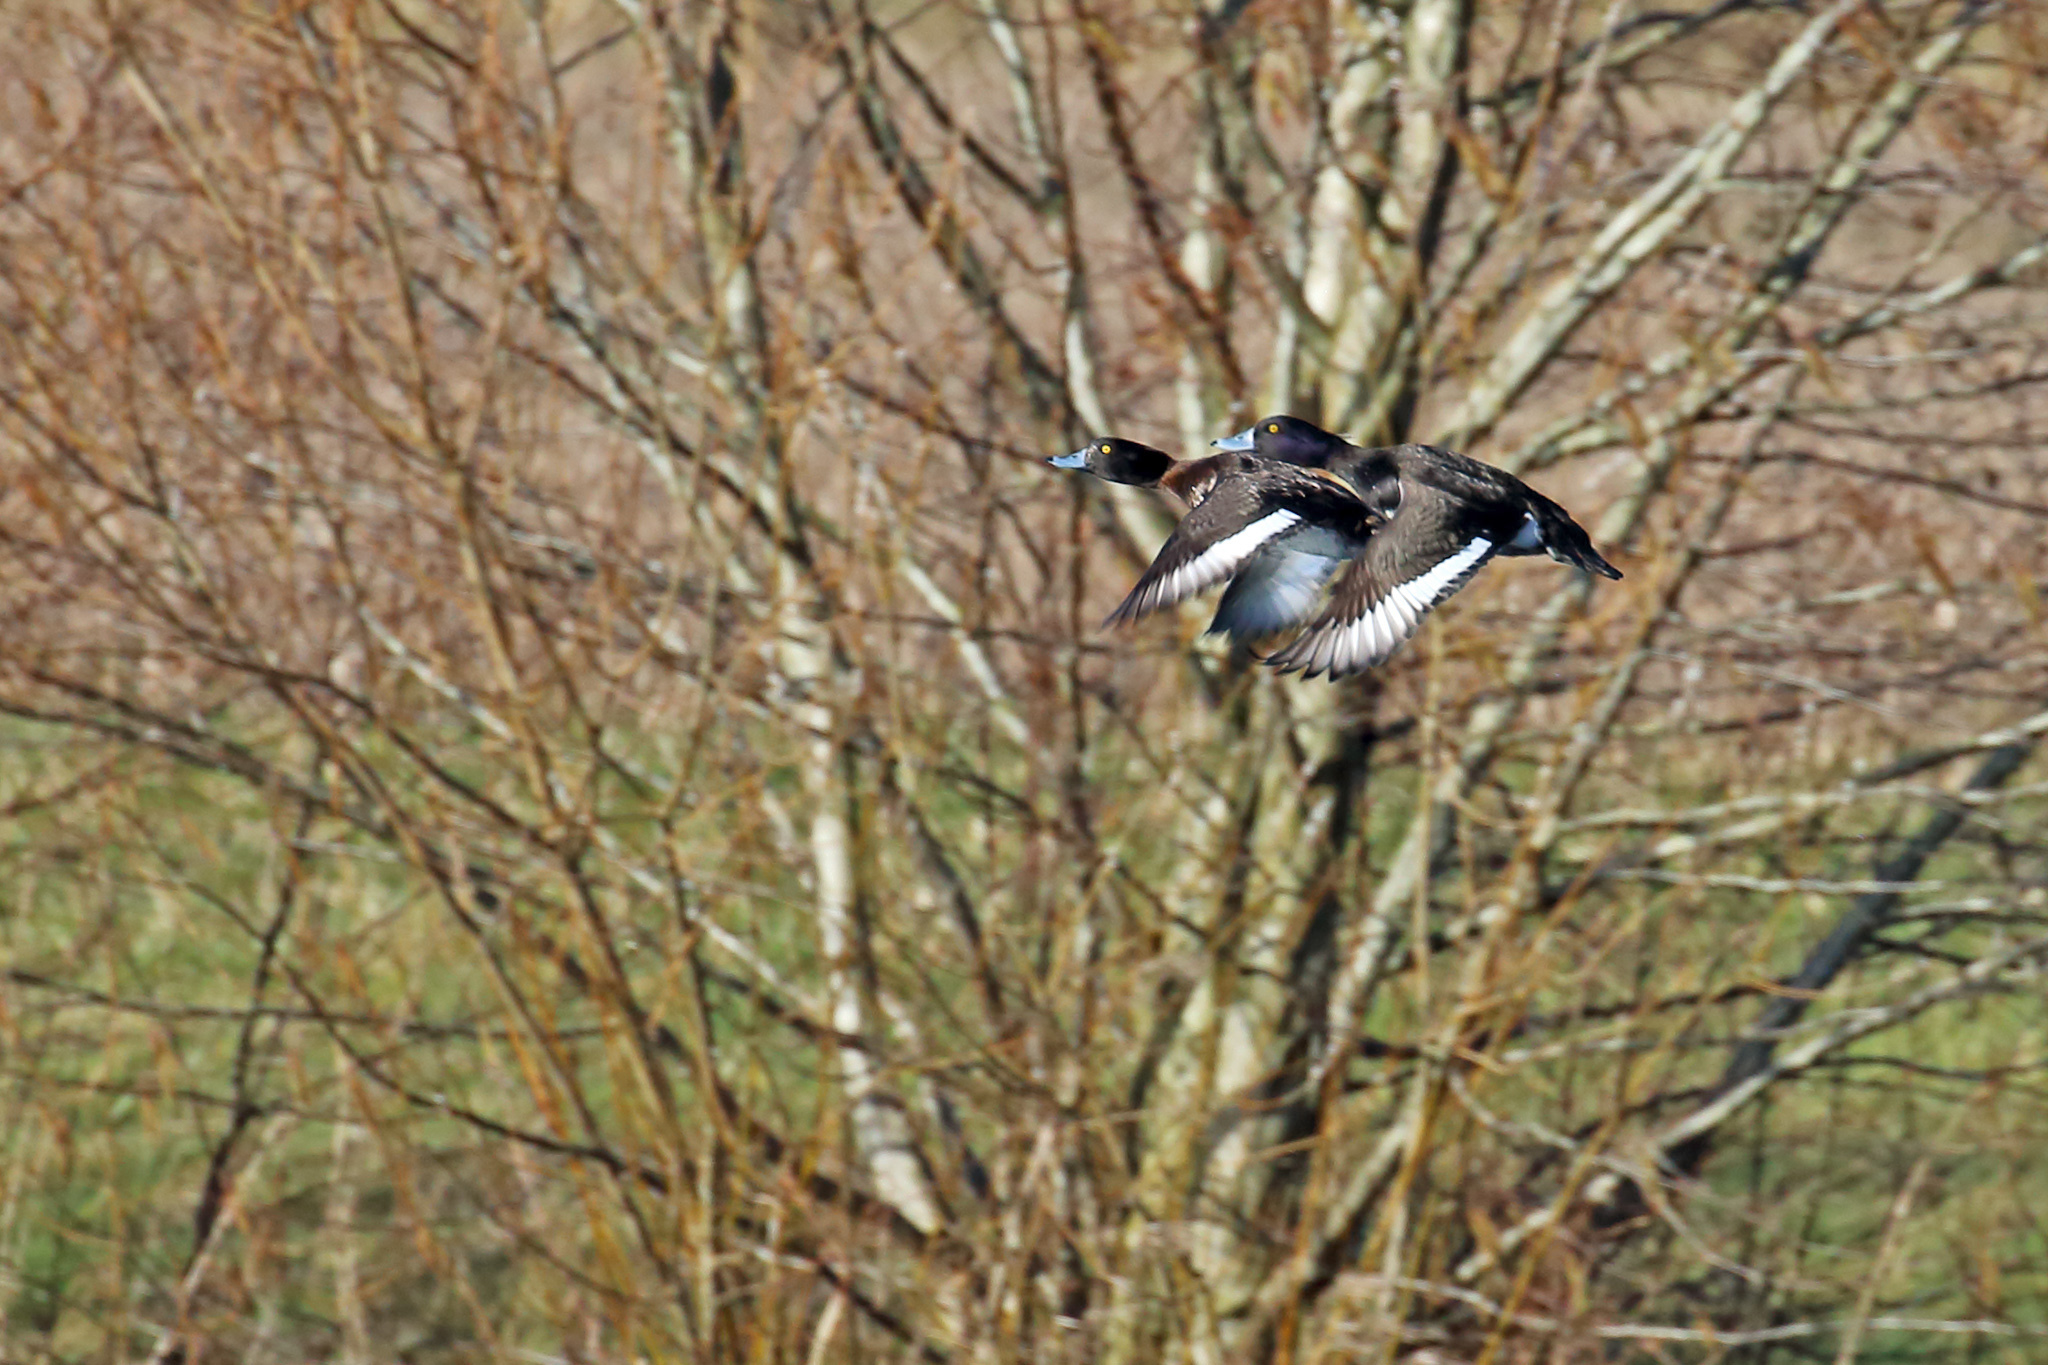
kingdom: Animalia
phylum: Chordata
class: Aves
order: Anseriformes
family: Anatidae
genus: Aythya
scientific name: Aythya fuligula
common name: Tufted duck
